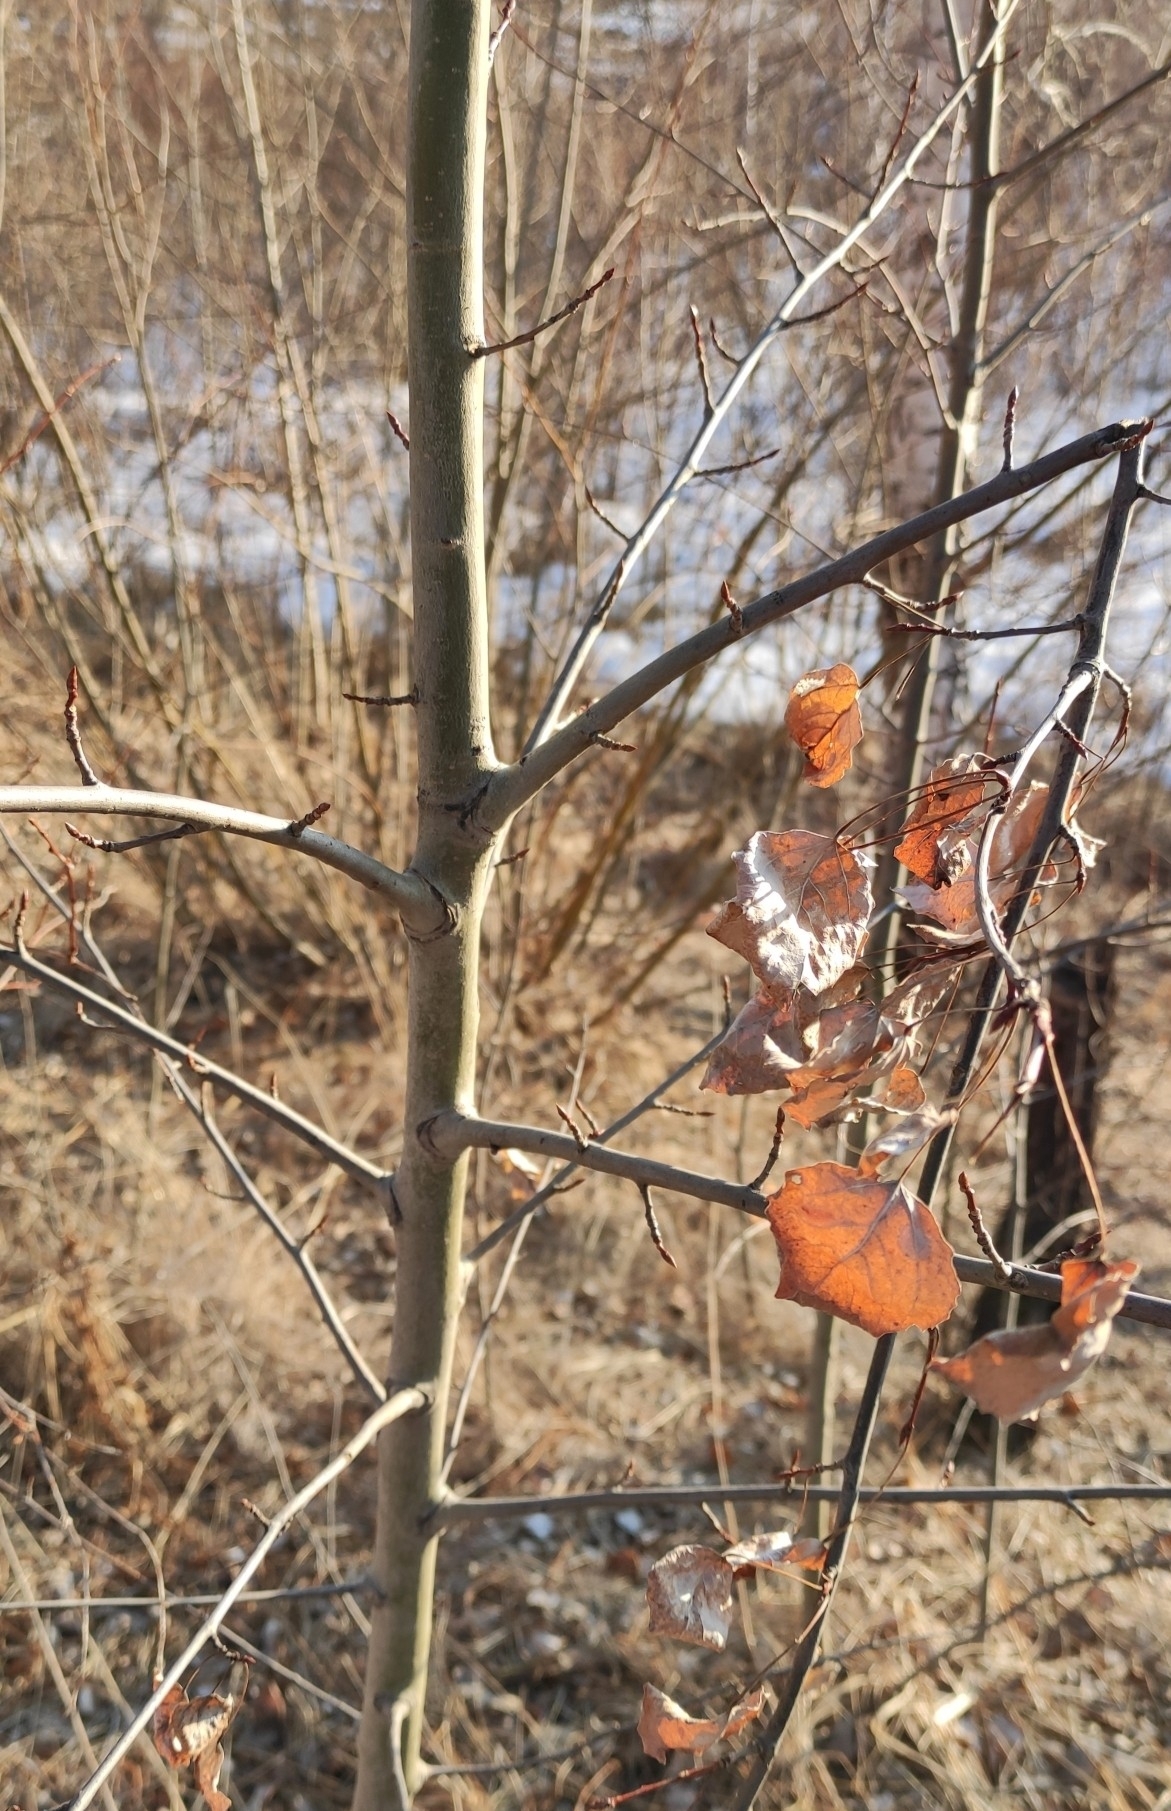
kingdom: Plantae
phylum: Tracheophyta
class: Magnoliopsida
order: Malpighiales
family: Salicaceae
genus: Populus
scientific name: Populus tremula
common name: European aspen
